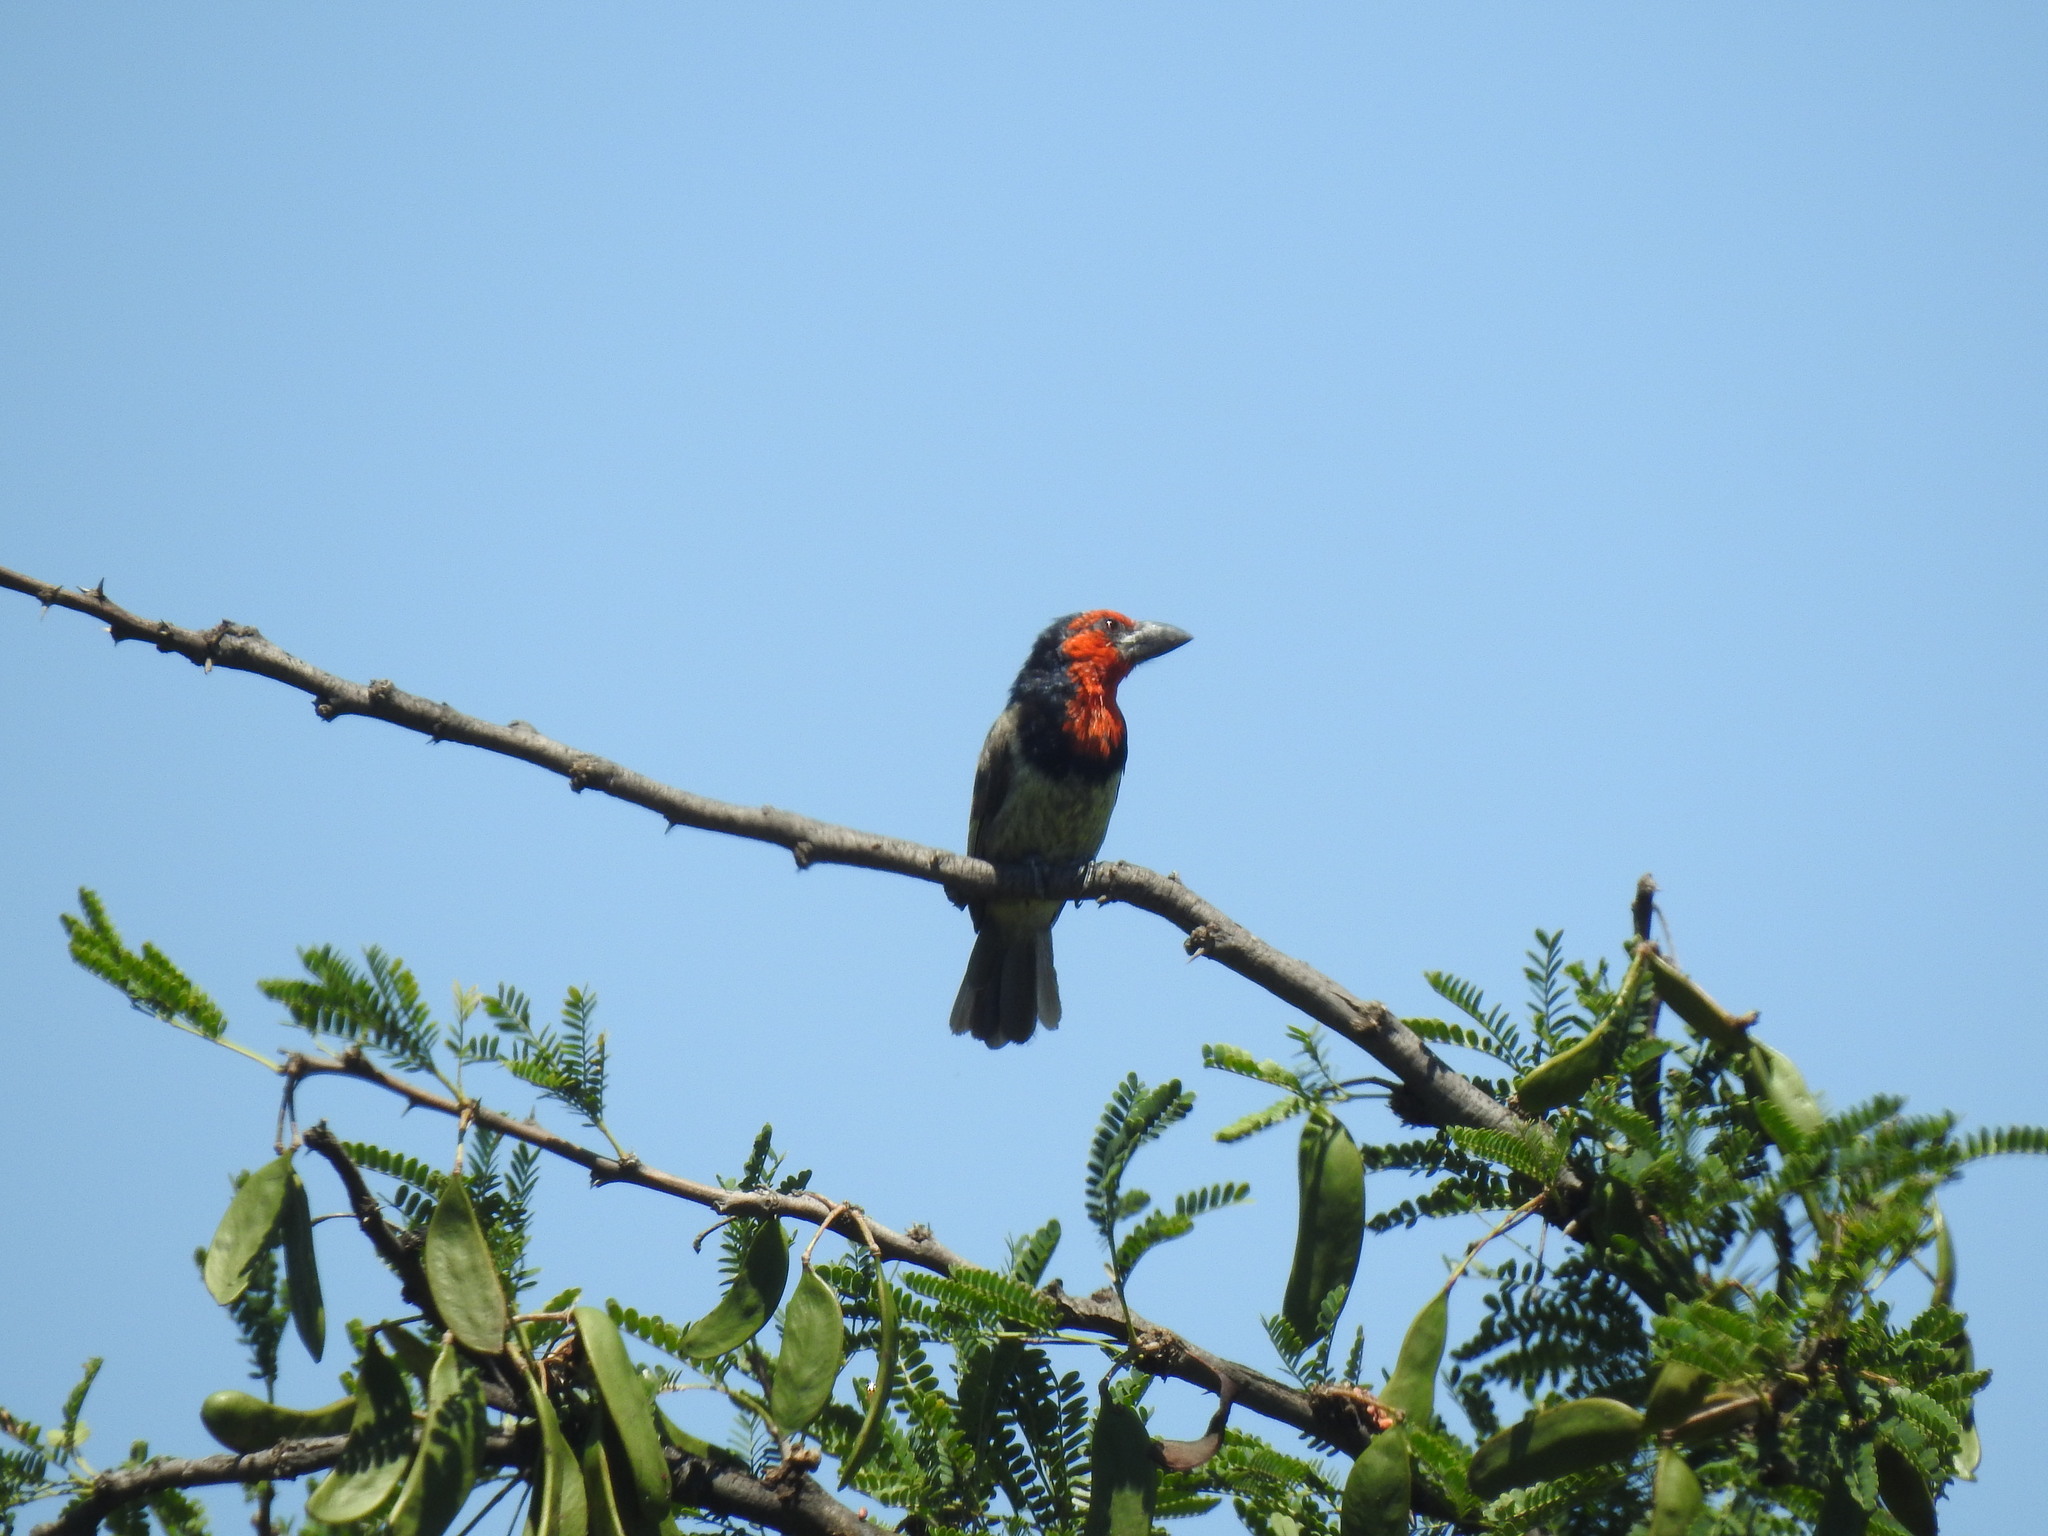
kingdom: Animalia
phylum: Chordata
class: Aves
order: Piciformes
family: Lybiidae
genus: Lybius
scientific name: Lybius torquatus
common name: Black-collared barbet
